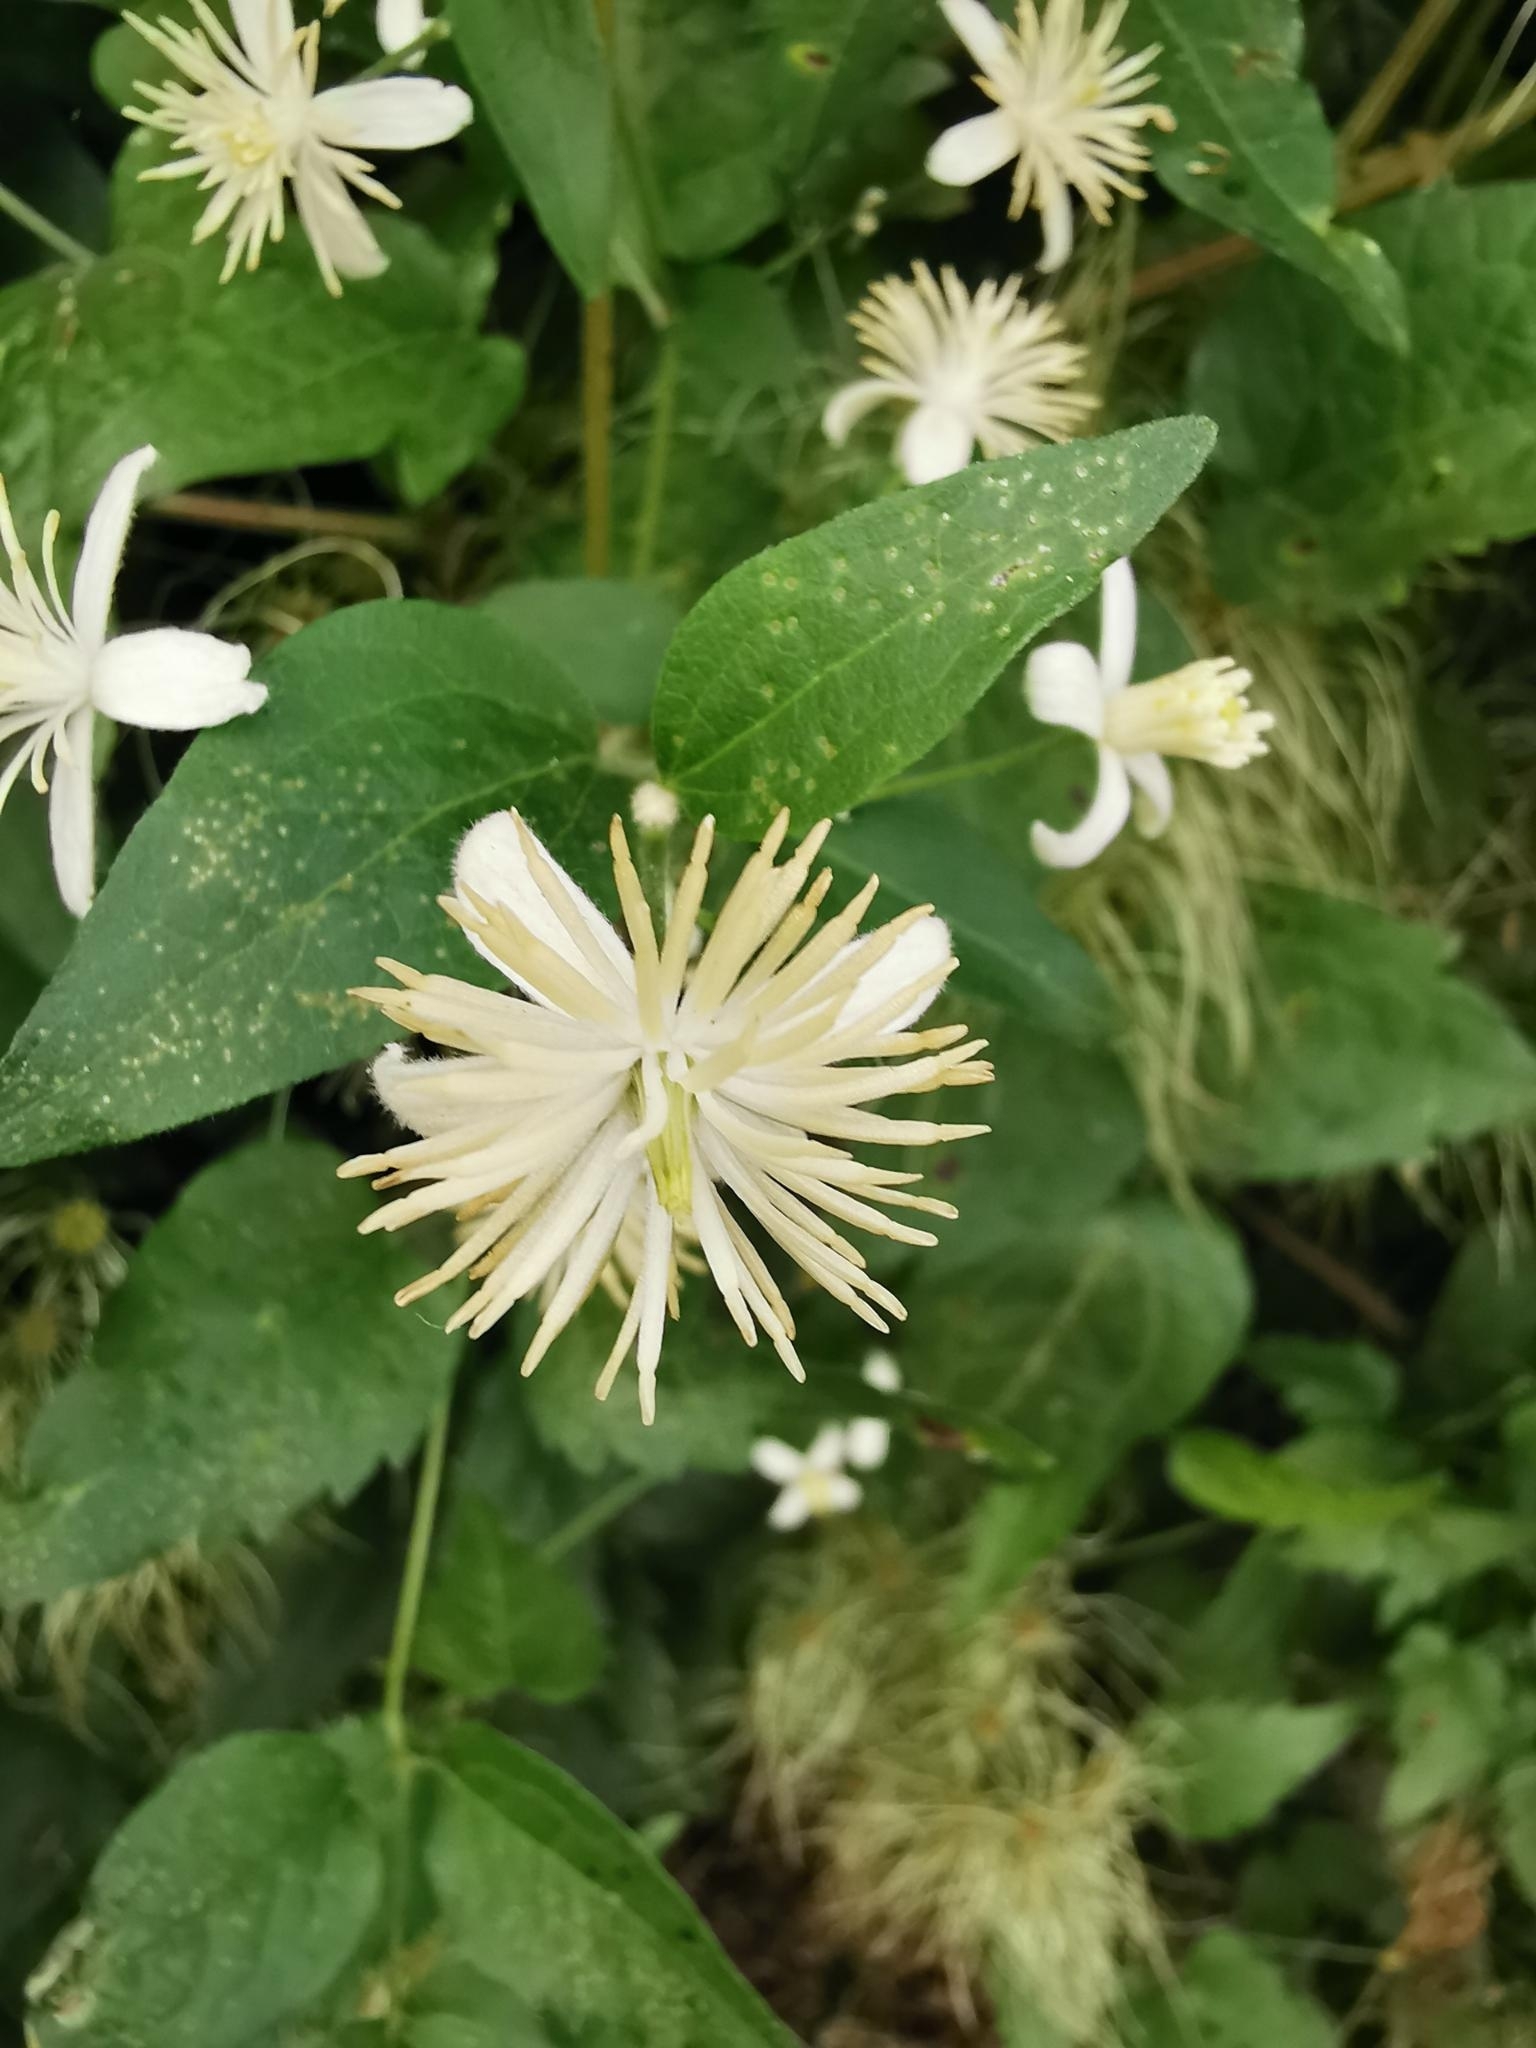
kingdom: Plantae
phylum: Tracheophyta
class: Magnoliopsida
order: Ranunculales
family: Ranunculaceae
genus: Clematis
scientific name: Clematis vitalba
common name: Evergreen clematis
